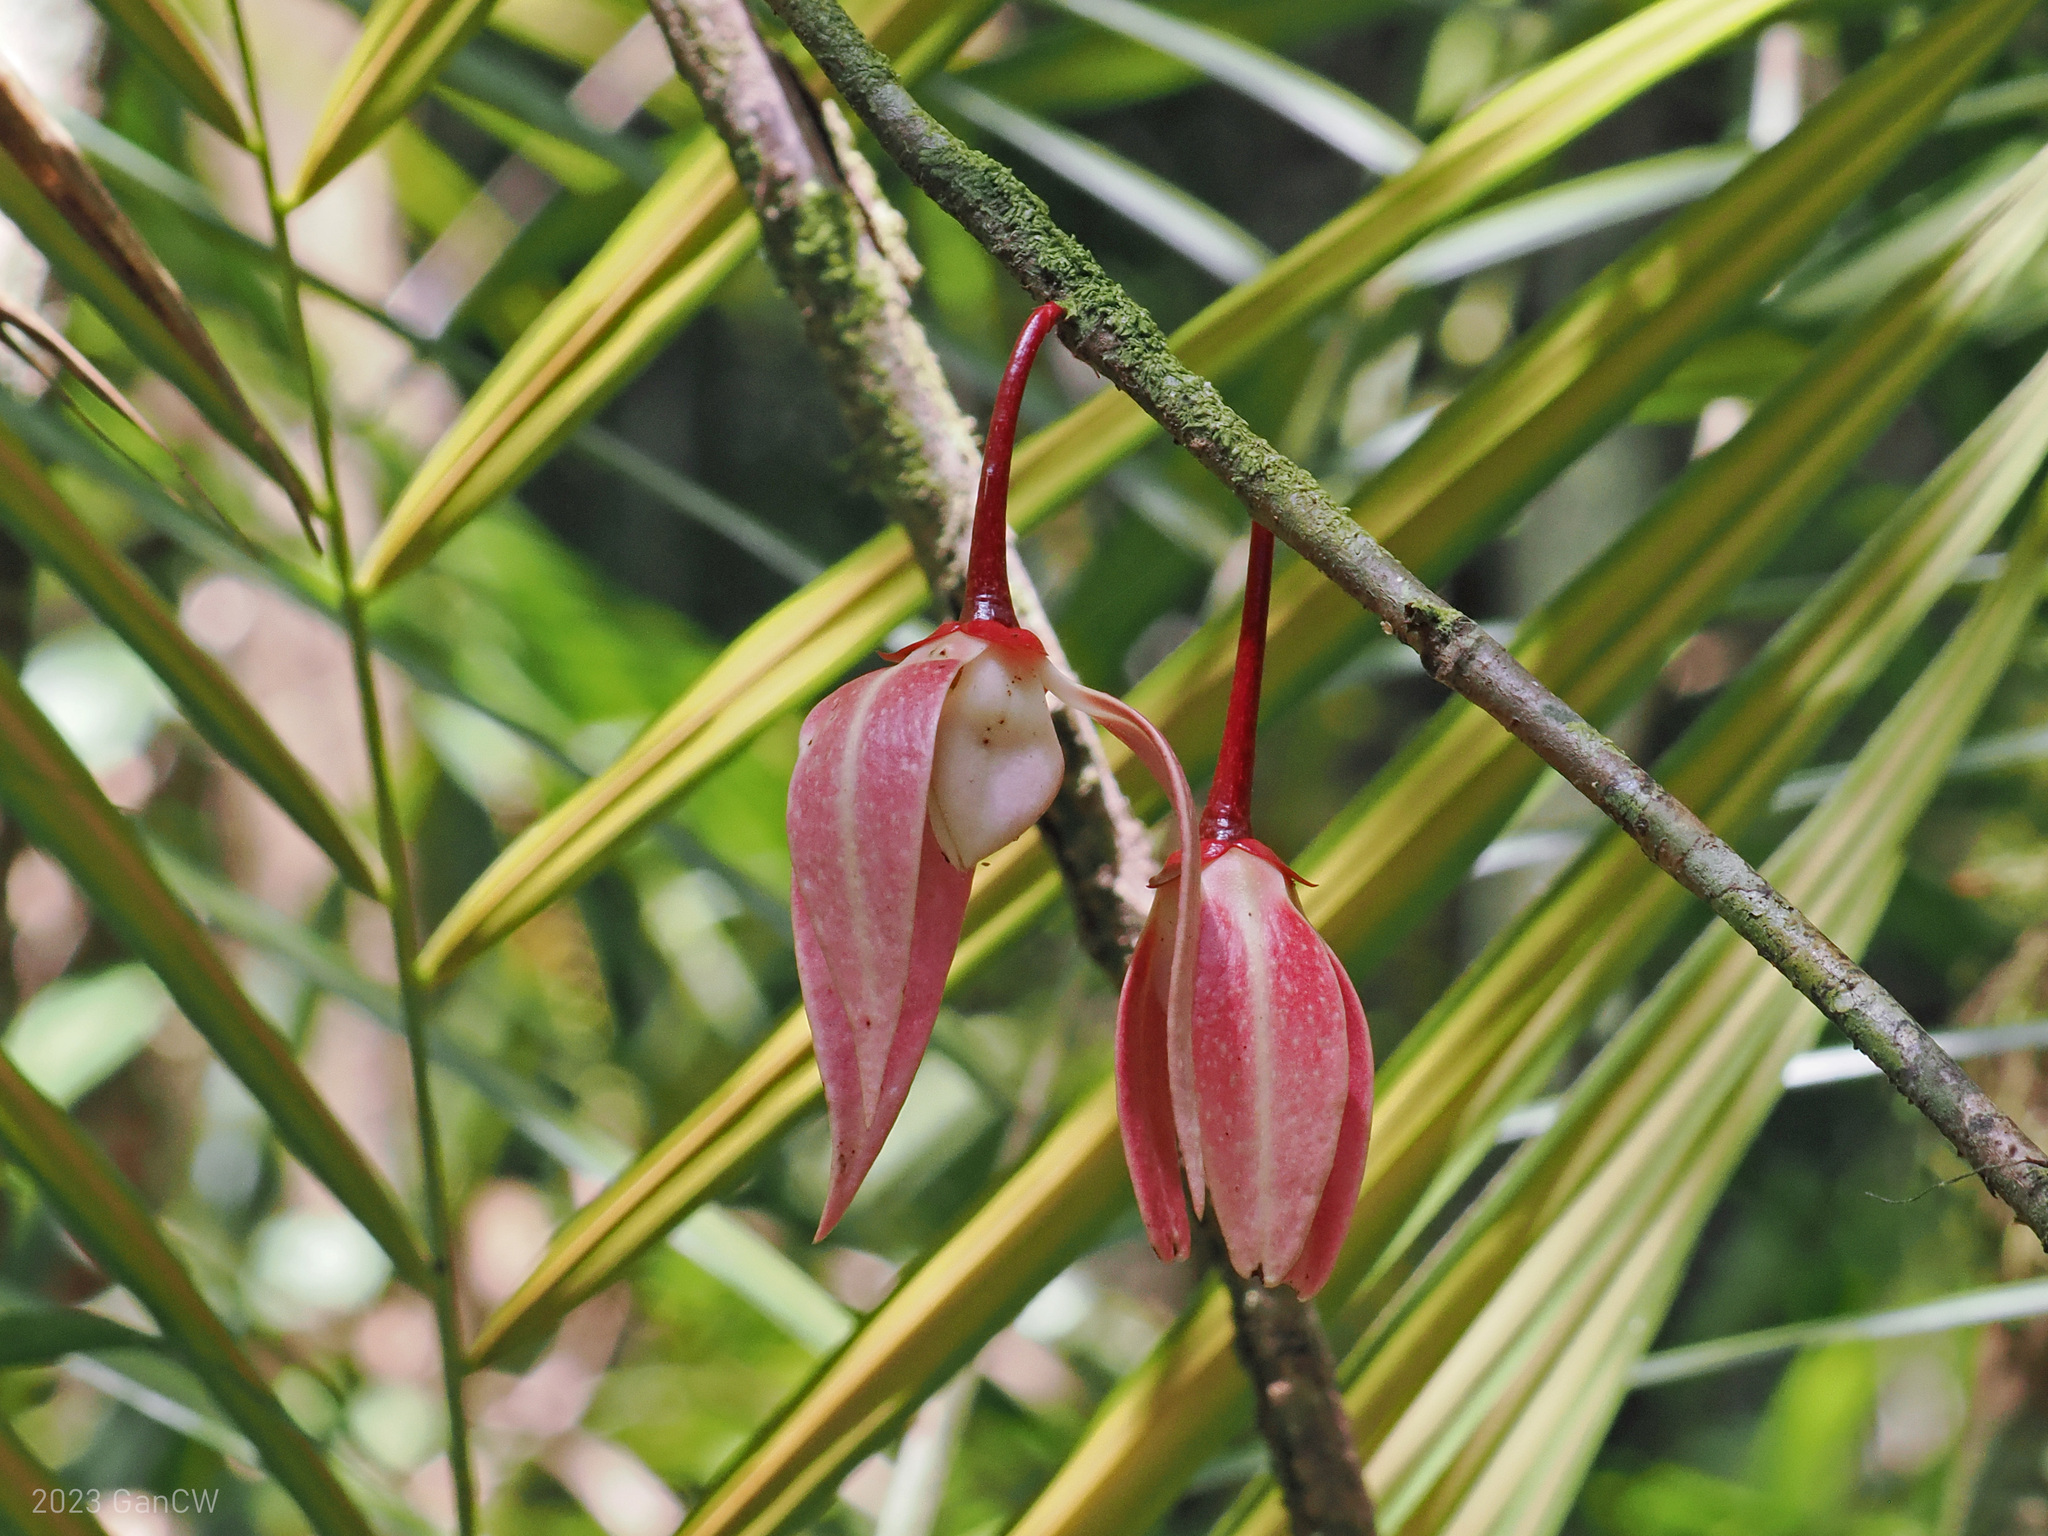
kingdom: Plantae
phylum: Tracheophyta
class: Magnoliopsida
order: Magnoliales
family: Annonaceae
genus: Goniothalamus
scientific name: Goniothalamus roseus
